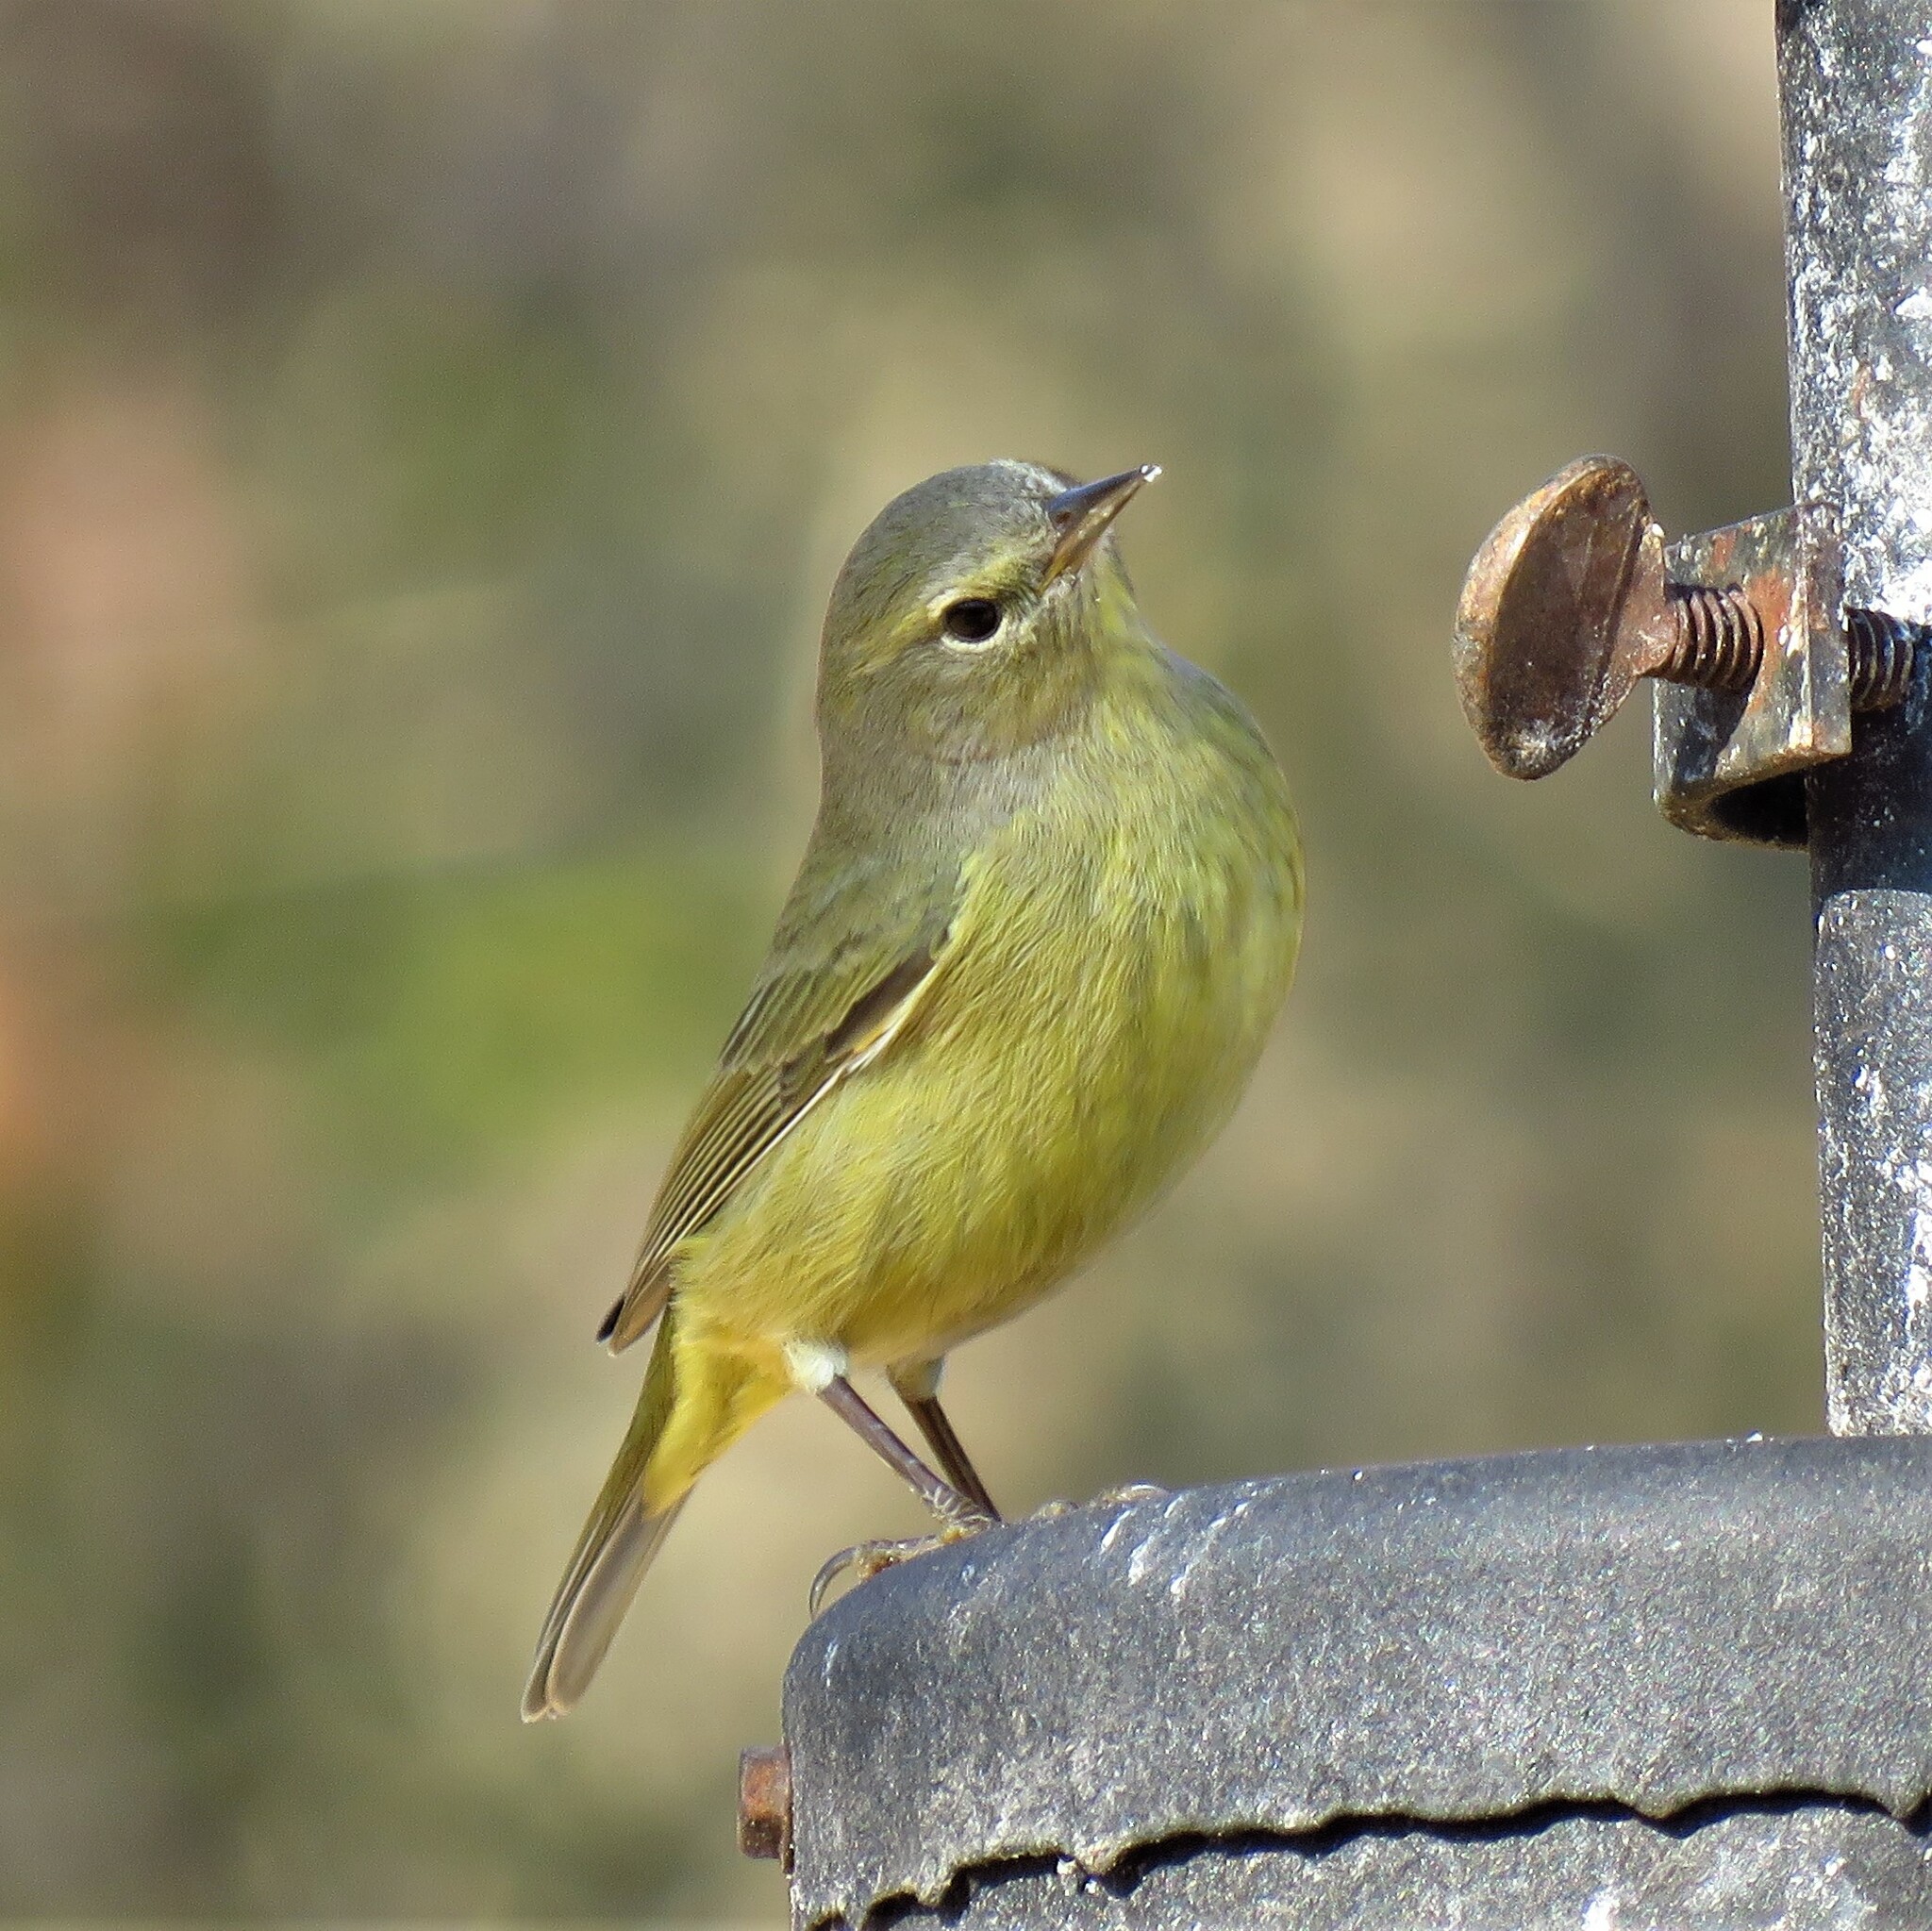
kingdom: Animalia
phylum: Chordata
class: Aves
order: Passeriformes
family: Parulidae
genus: Leiothlypis
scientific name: Leiothlypis celata
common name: Orange-crowned warbler
